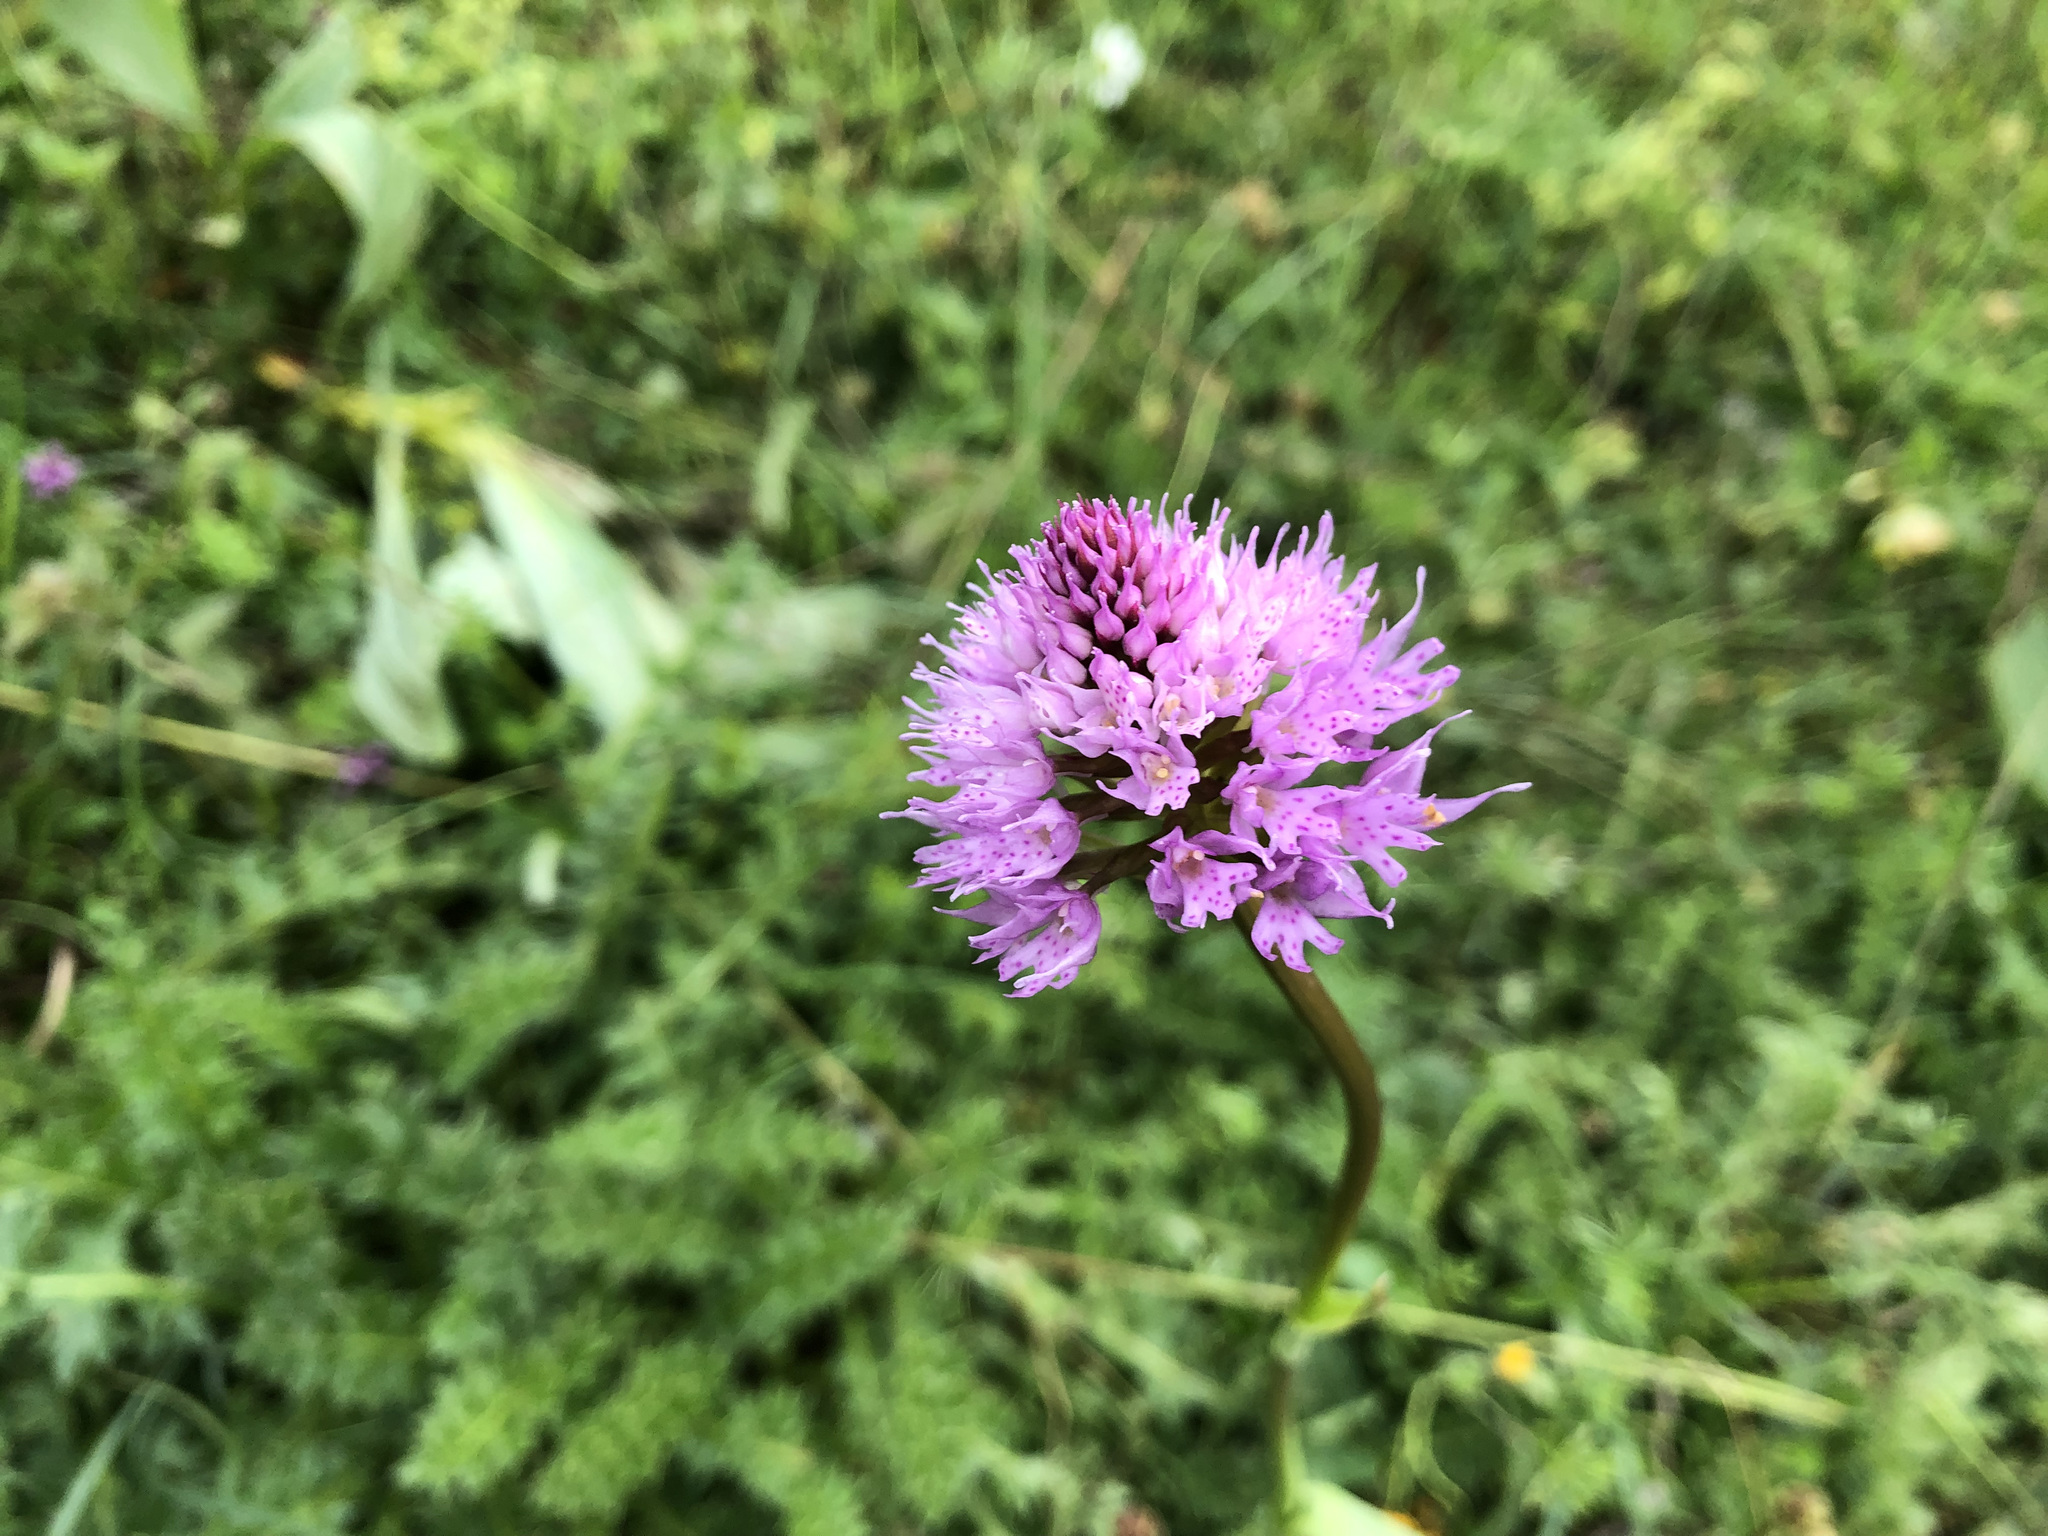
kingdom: Plantae
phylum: Tracheophyta
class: Liliopsida
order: Asparagales
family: Orchidaceae
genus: Traunsteinera
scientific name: Traunsteinera globosa
